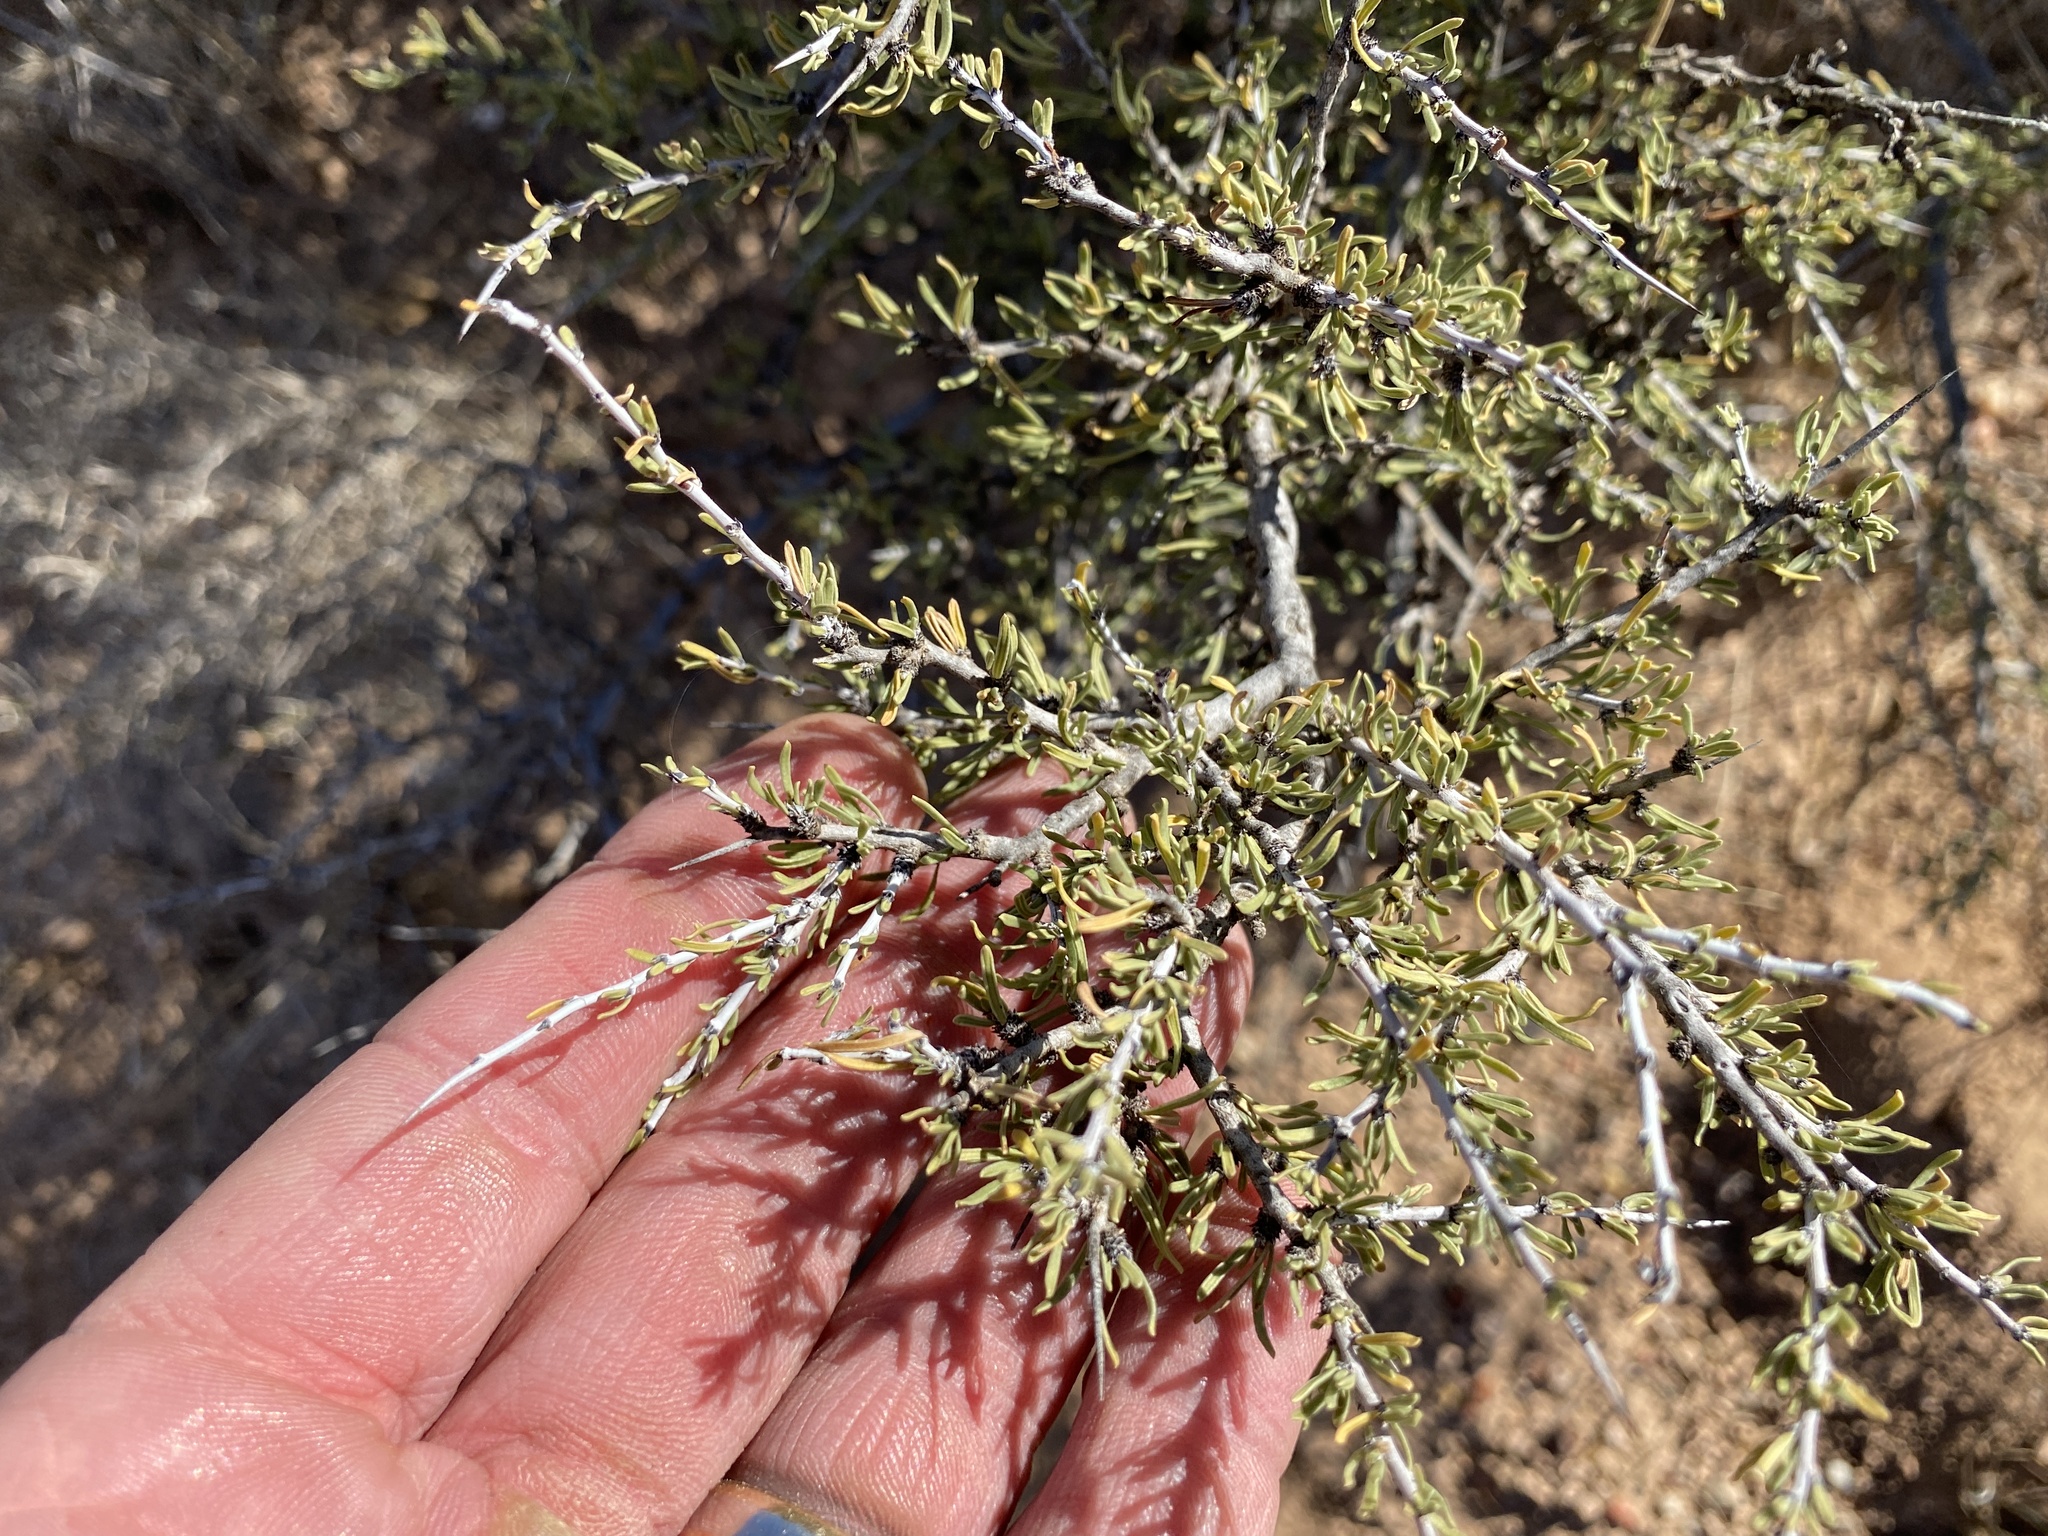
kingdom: Plantae
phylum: Tracheophyta
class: Magnoliopsida
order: Rosales
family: Rhamnaceae
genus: Condalia
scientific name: Condalia ericoides
